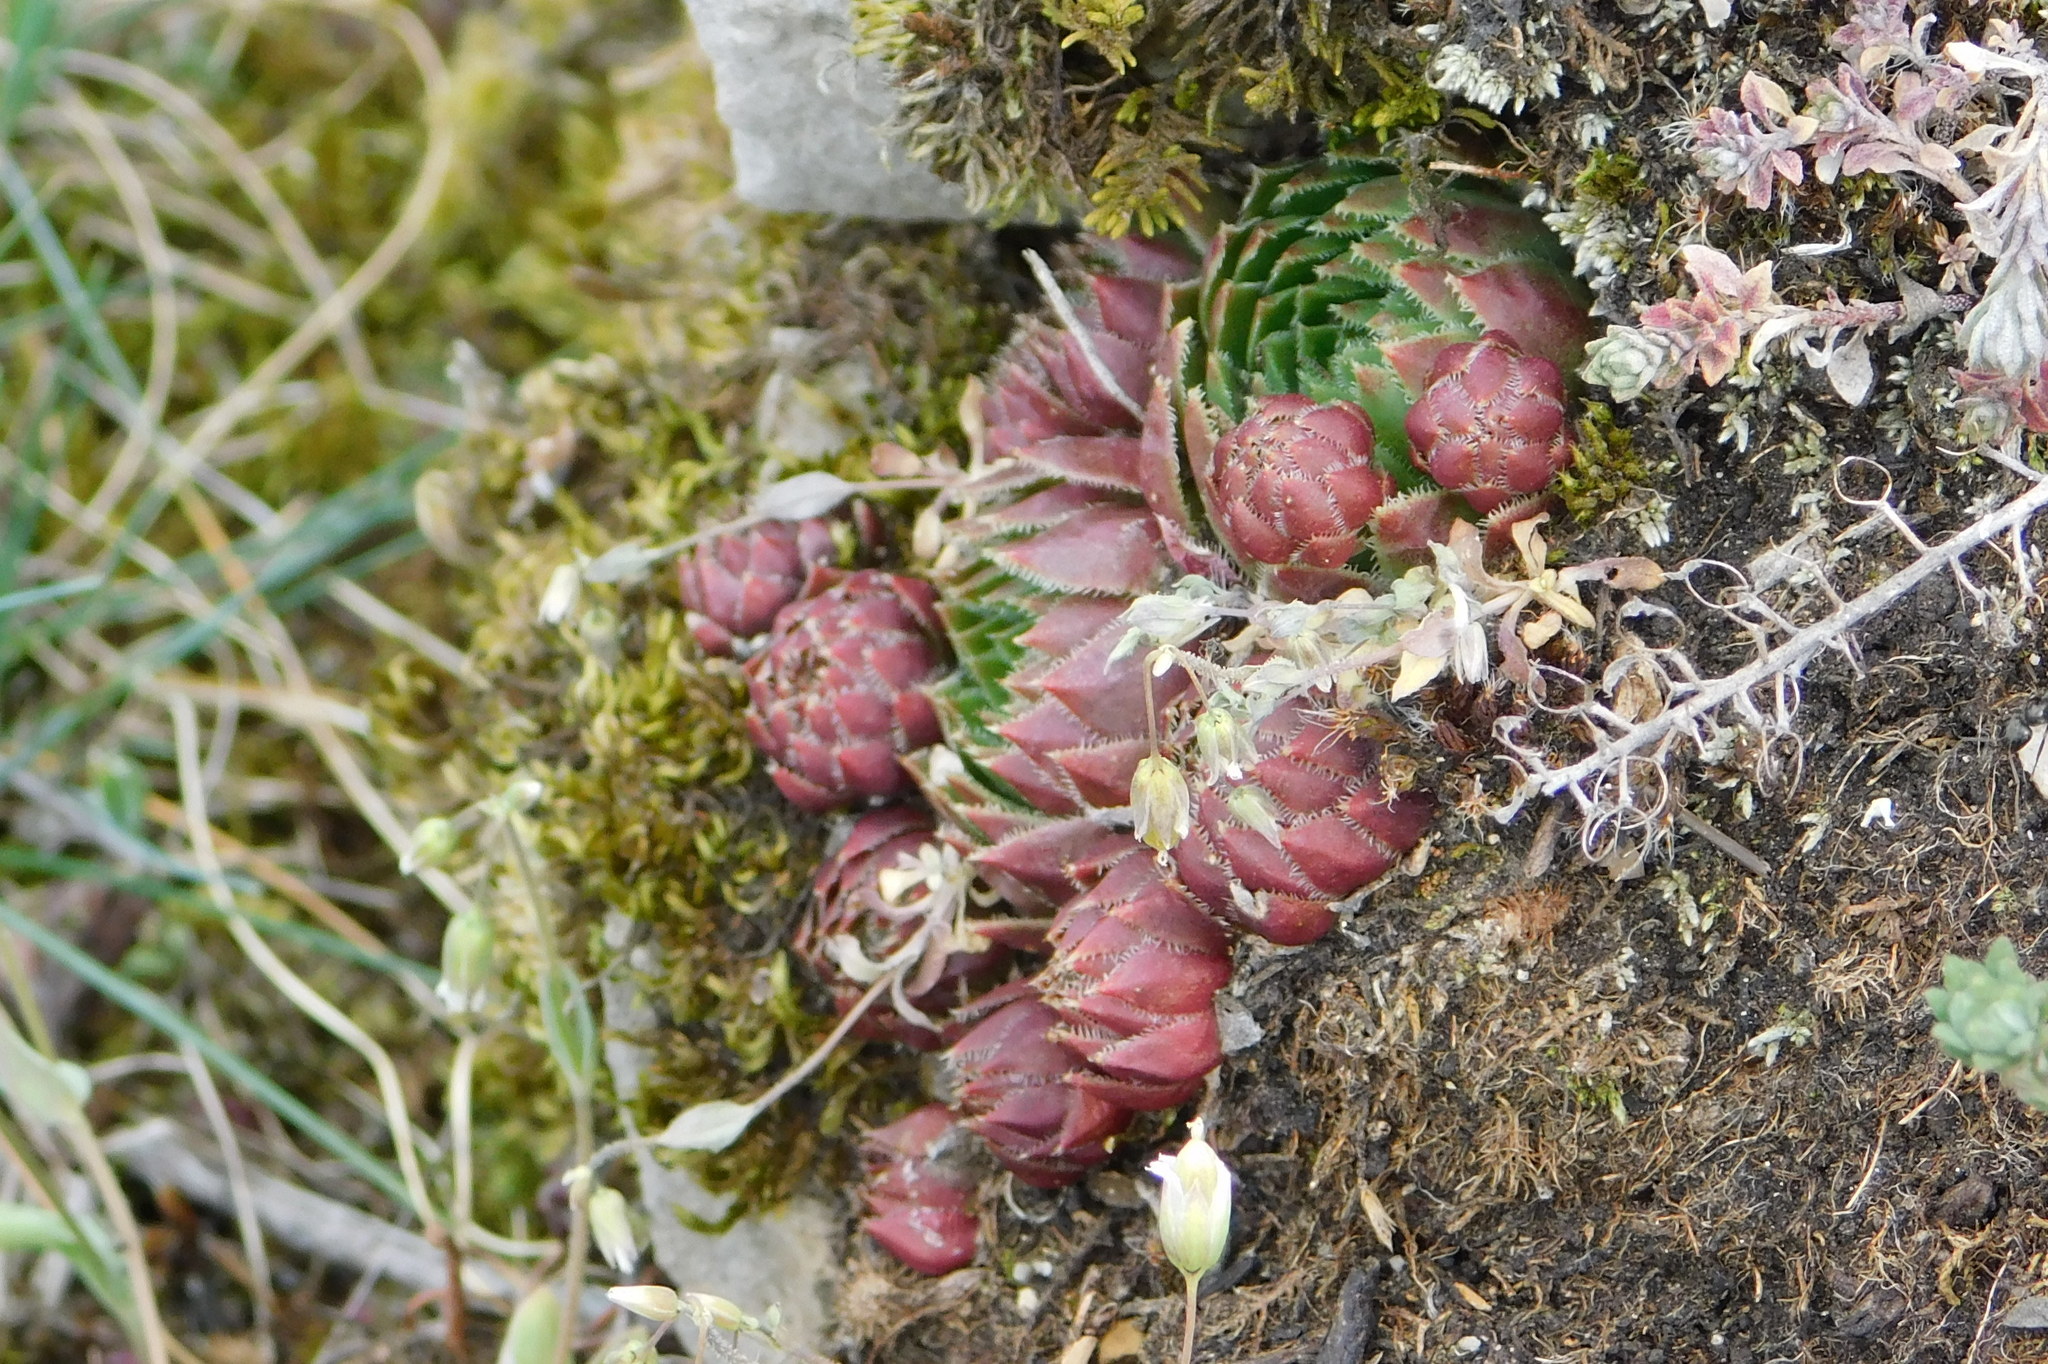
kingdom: Plantae
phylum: Tracheophyta
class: Magnoliopsida
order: Saxifragales
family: Crassulaceae
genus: Sempervivum
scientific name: Sempervivum globiferum
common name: Rolling hen-and-chicks
